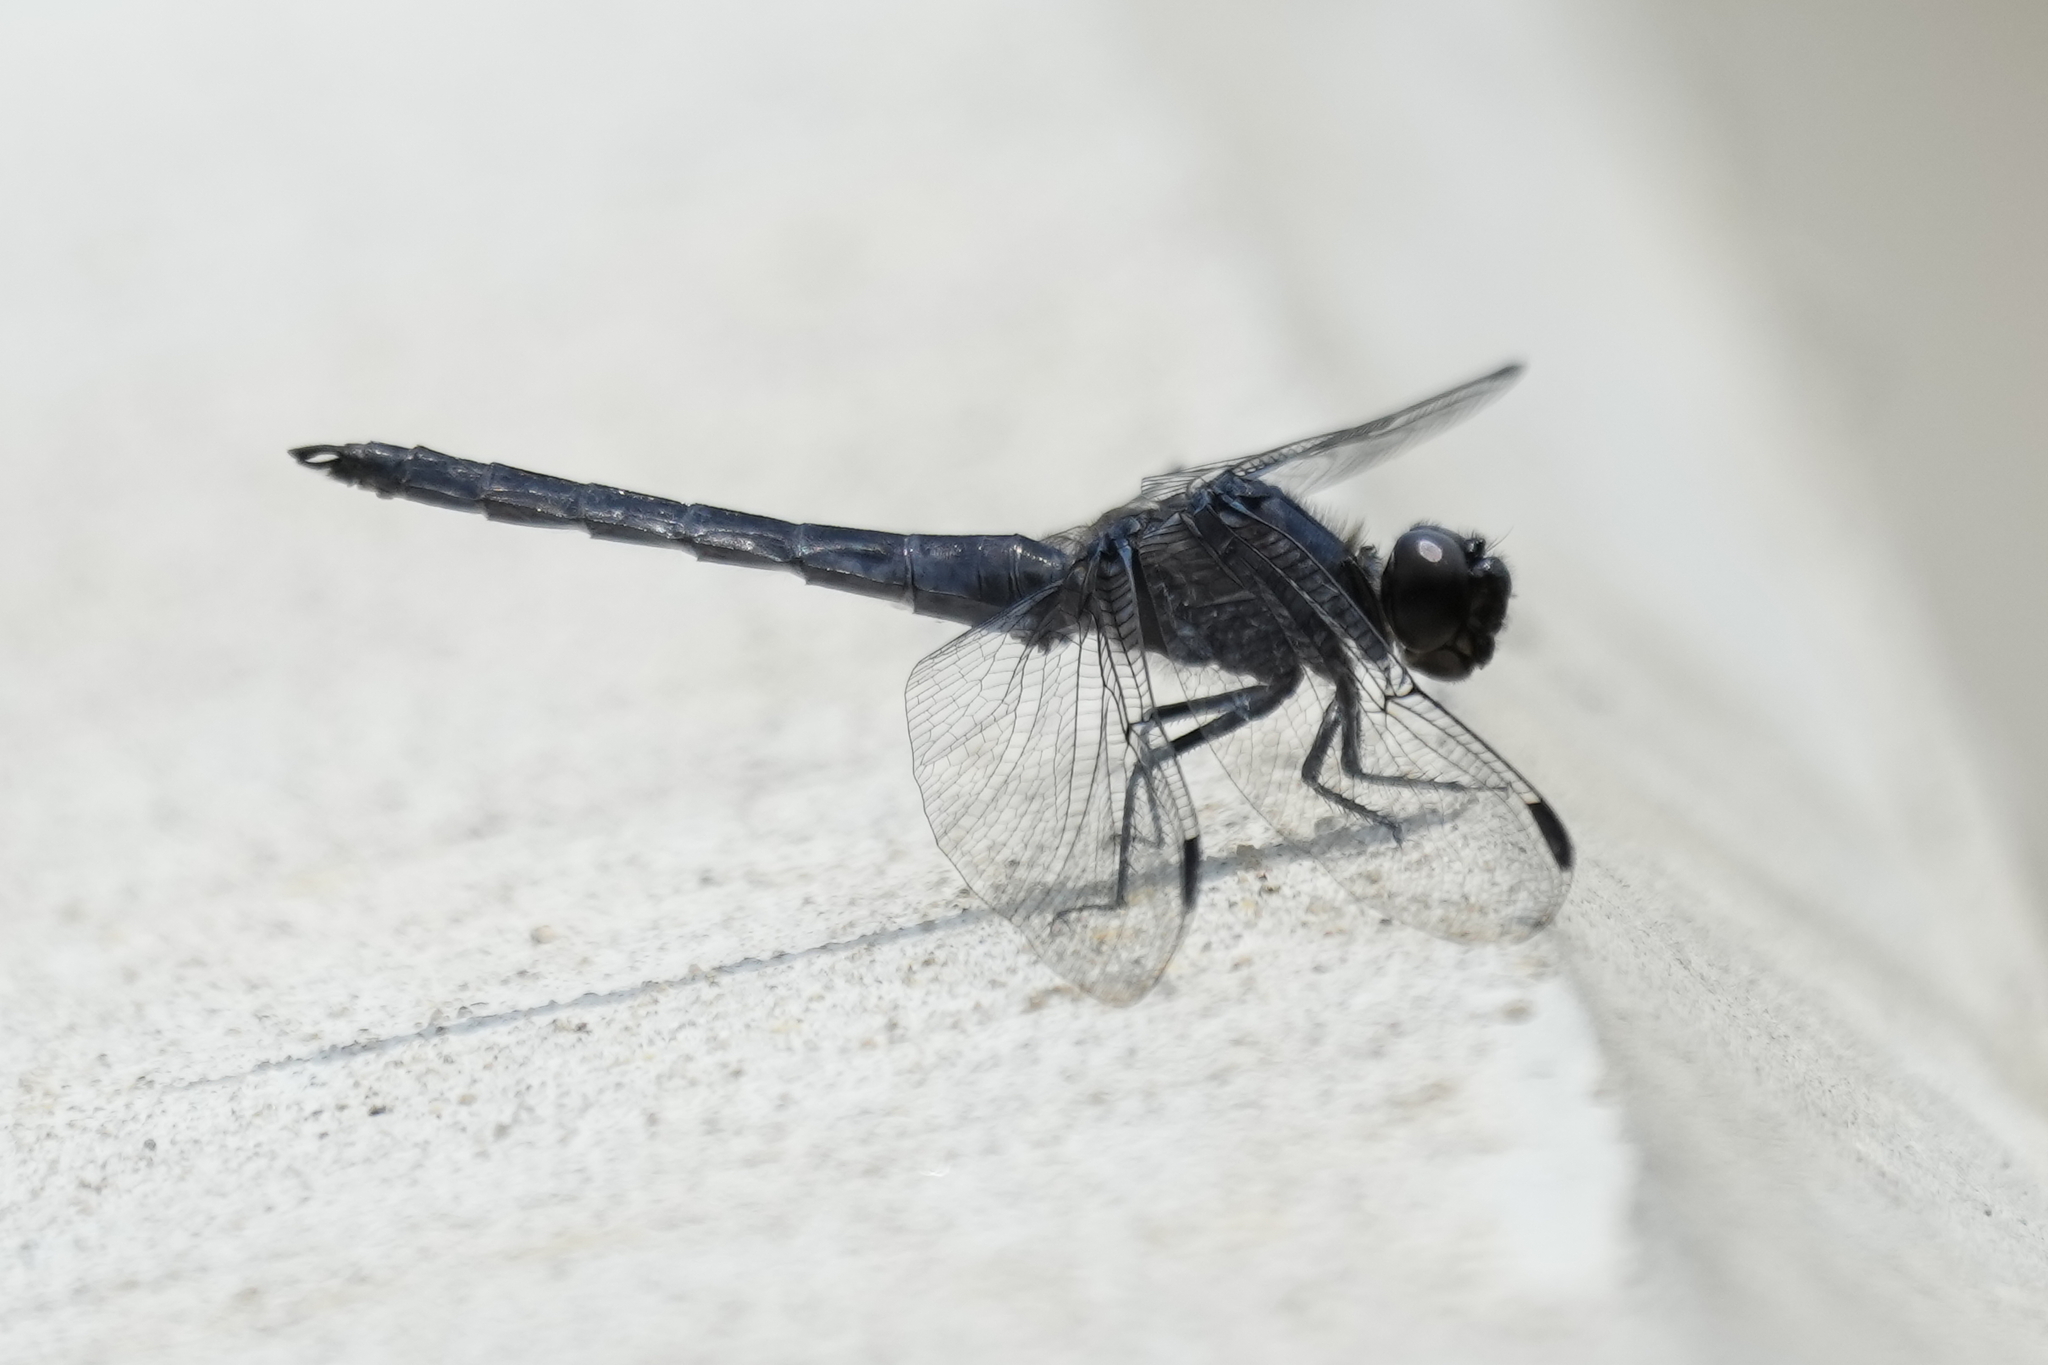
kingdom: Animalia
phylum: Arthropoda
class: Insecta
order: Odonata
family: Libellulidae
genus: Libellula
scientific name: Libellula incesta
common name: Slaty skimmer
